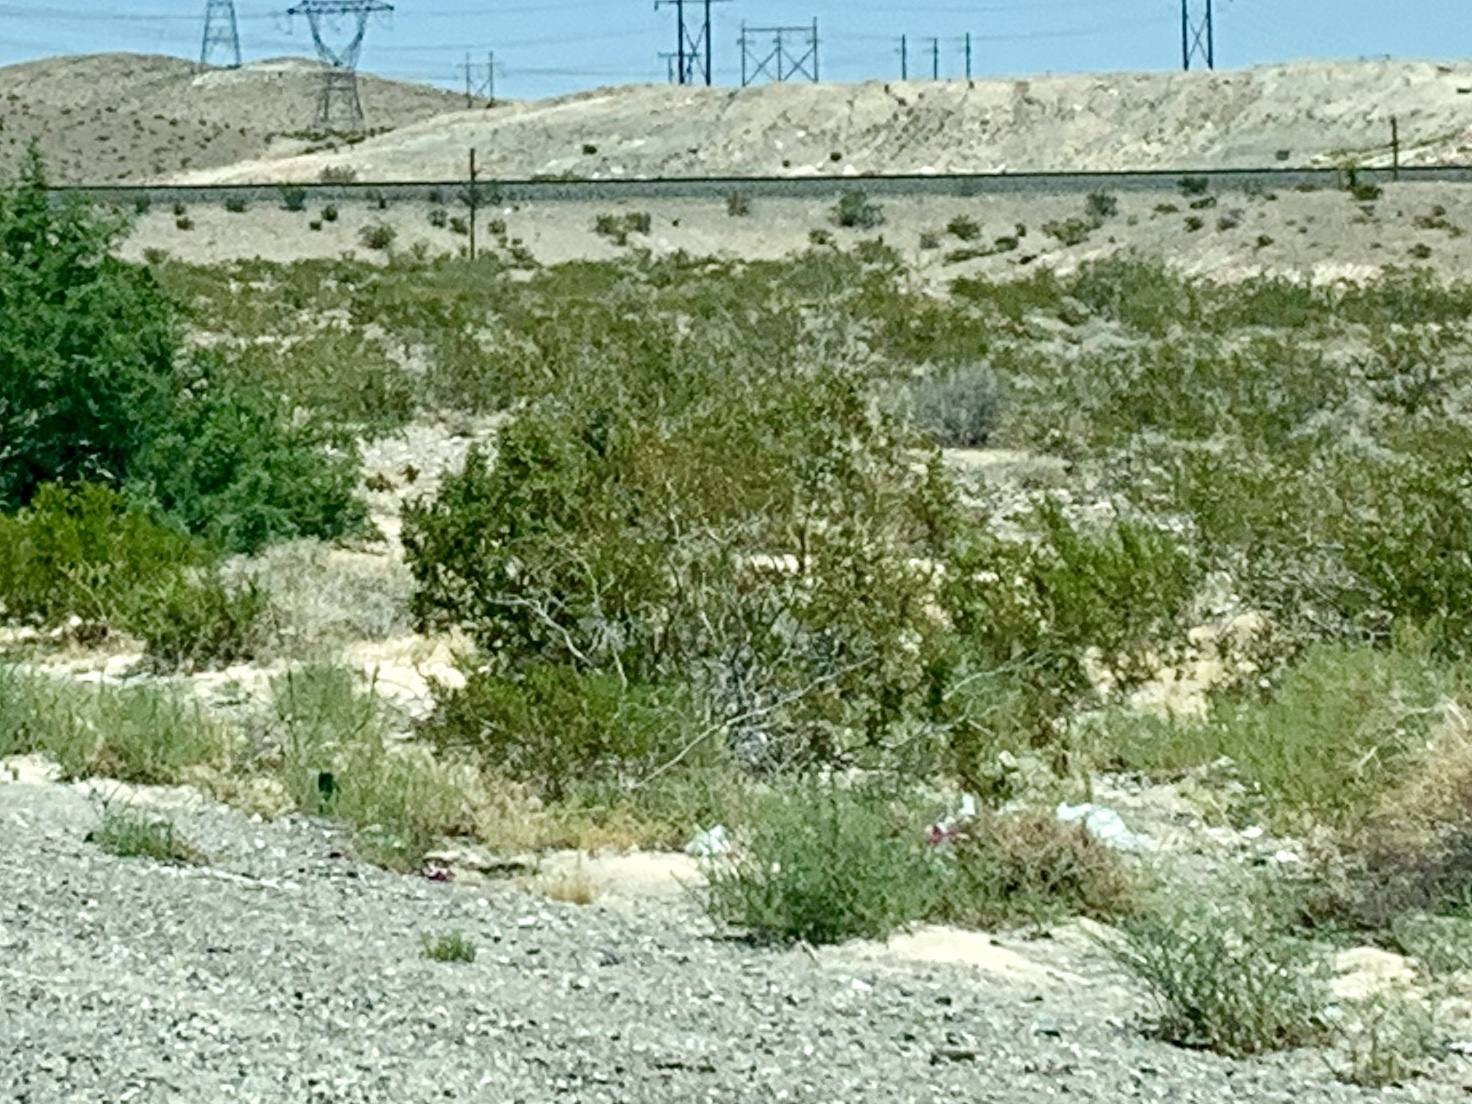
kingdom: Plantae
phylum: Tracheophyta
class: Magnoliopsida
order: Zygophyllales
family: Zygophyllaceae
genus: Larrea
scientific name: Larrea tridentata
